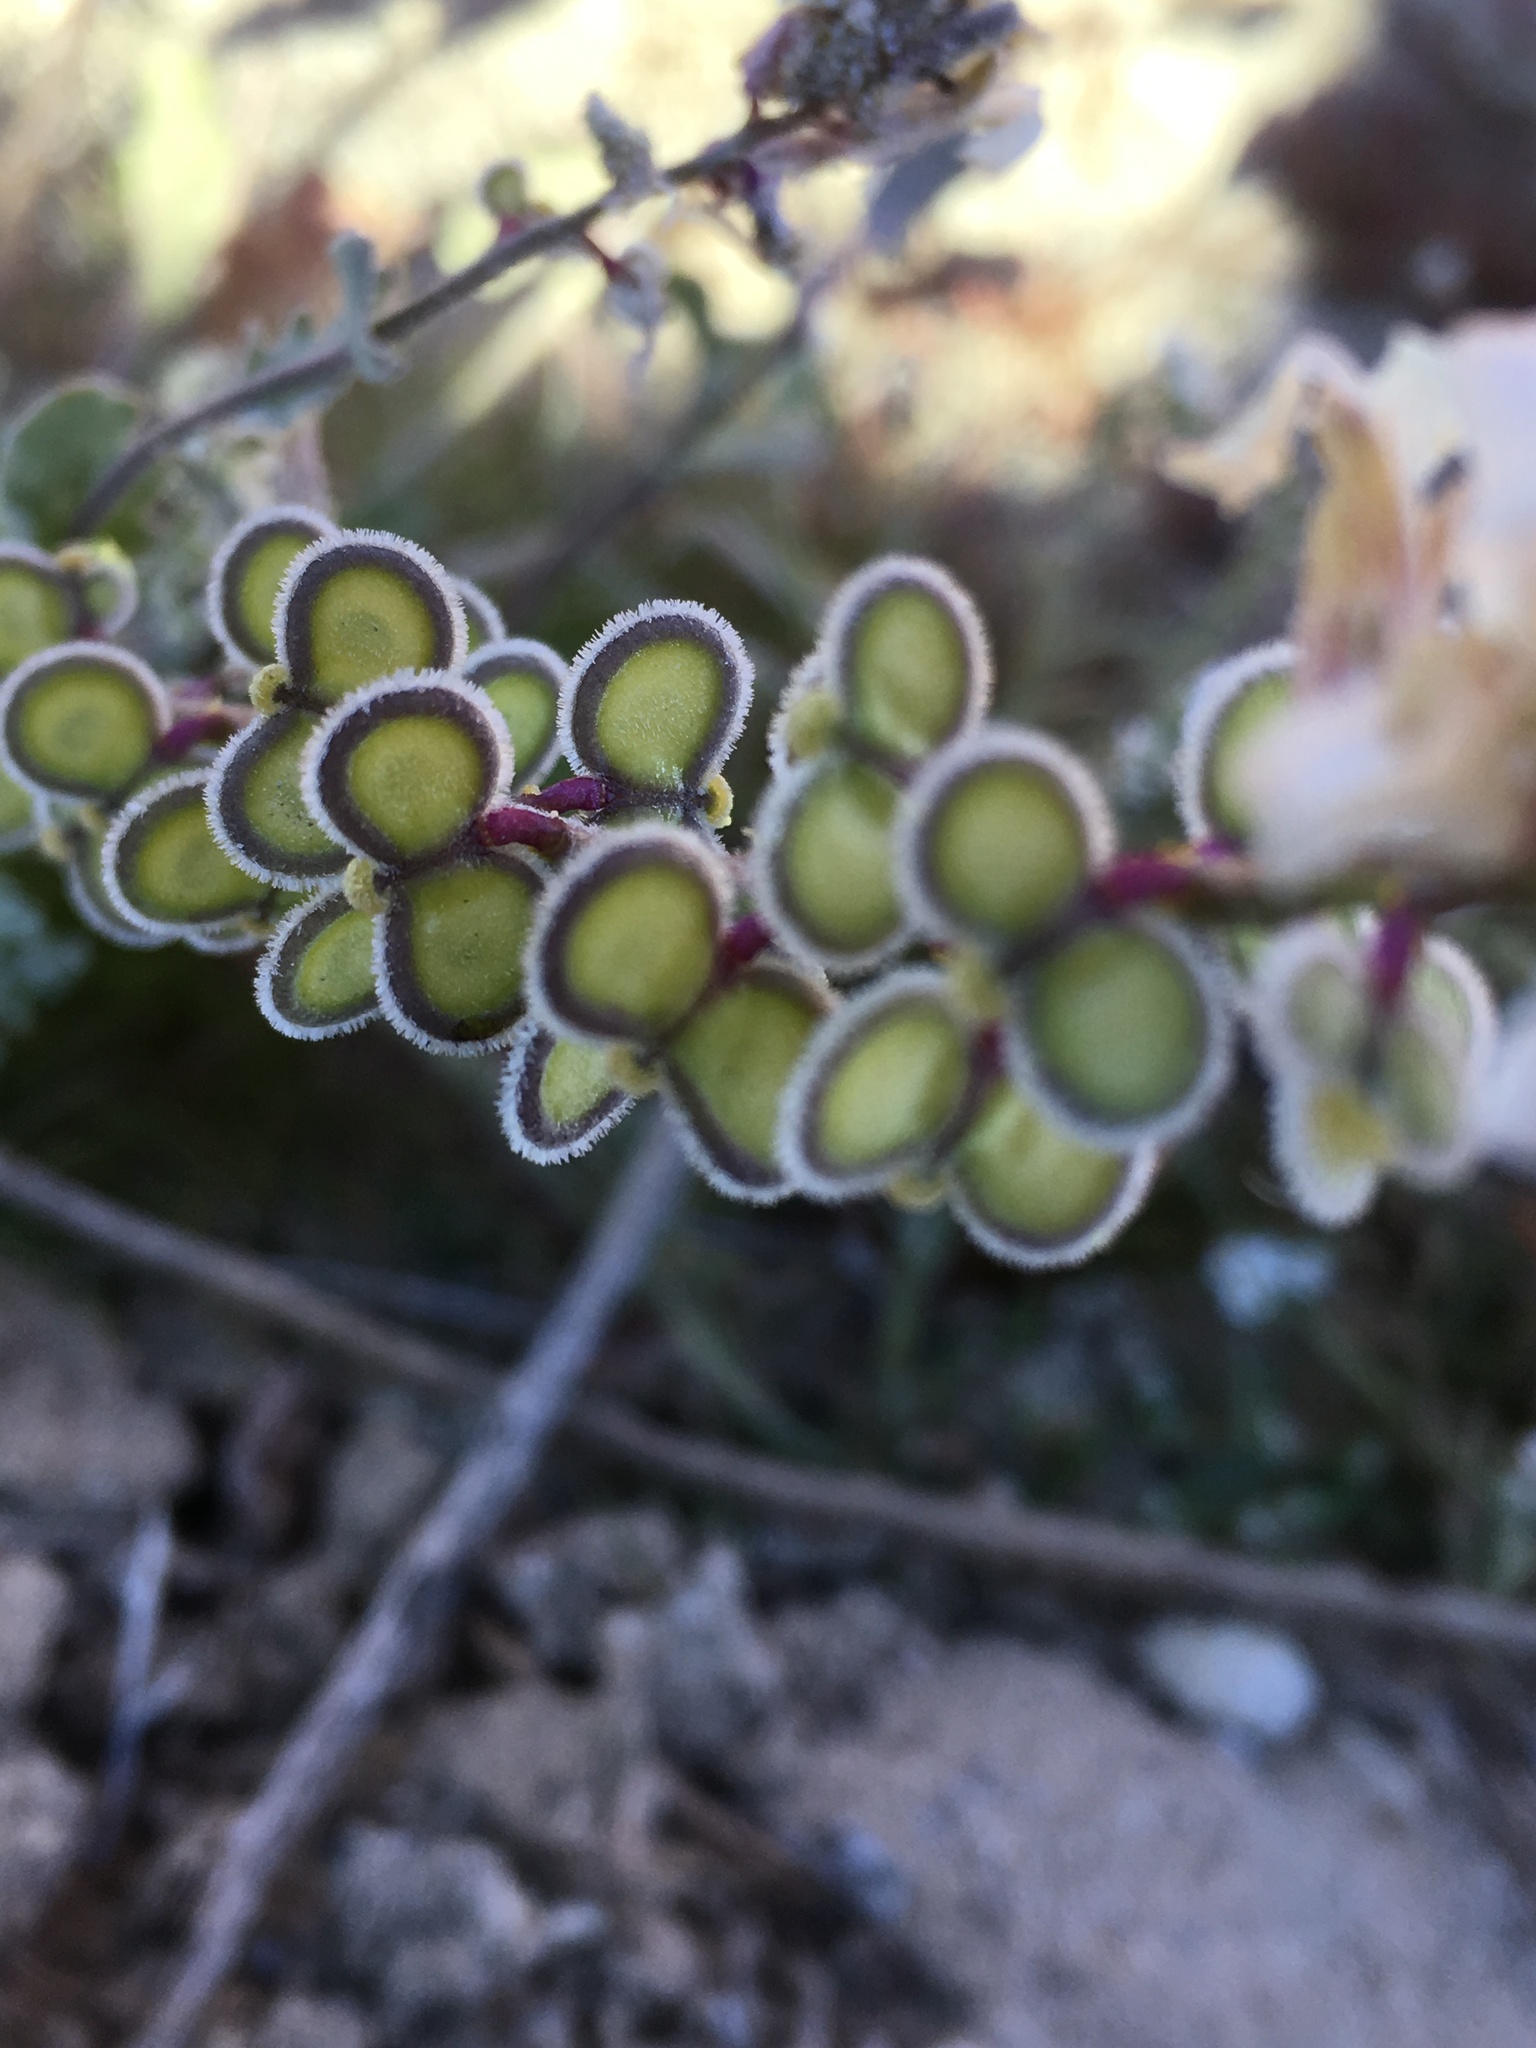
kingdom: Plantae
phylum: Tracheophyta
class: Magnoliopsida
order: Brassicales
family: Brassicaceae
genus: Dithyrea
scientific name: Dithyrea californica
